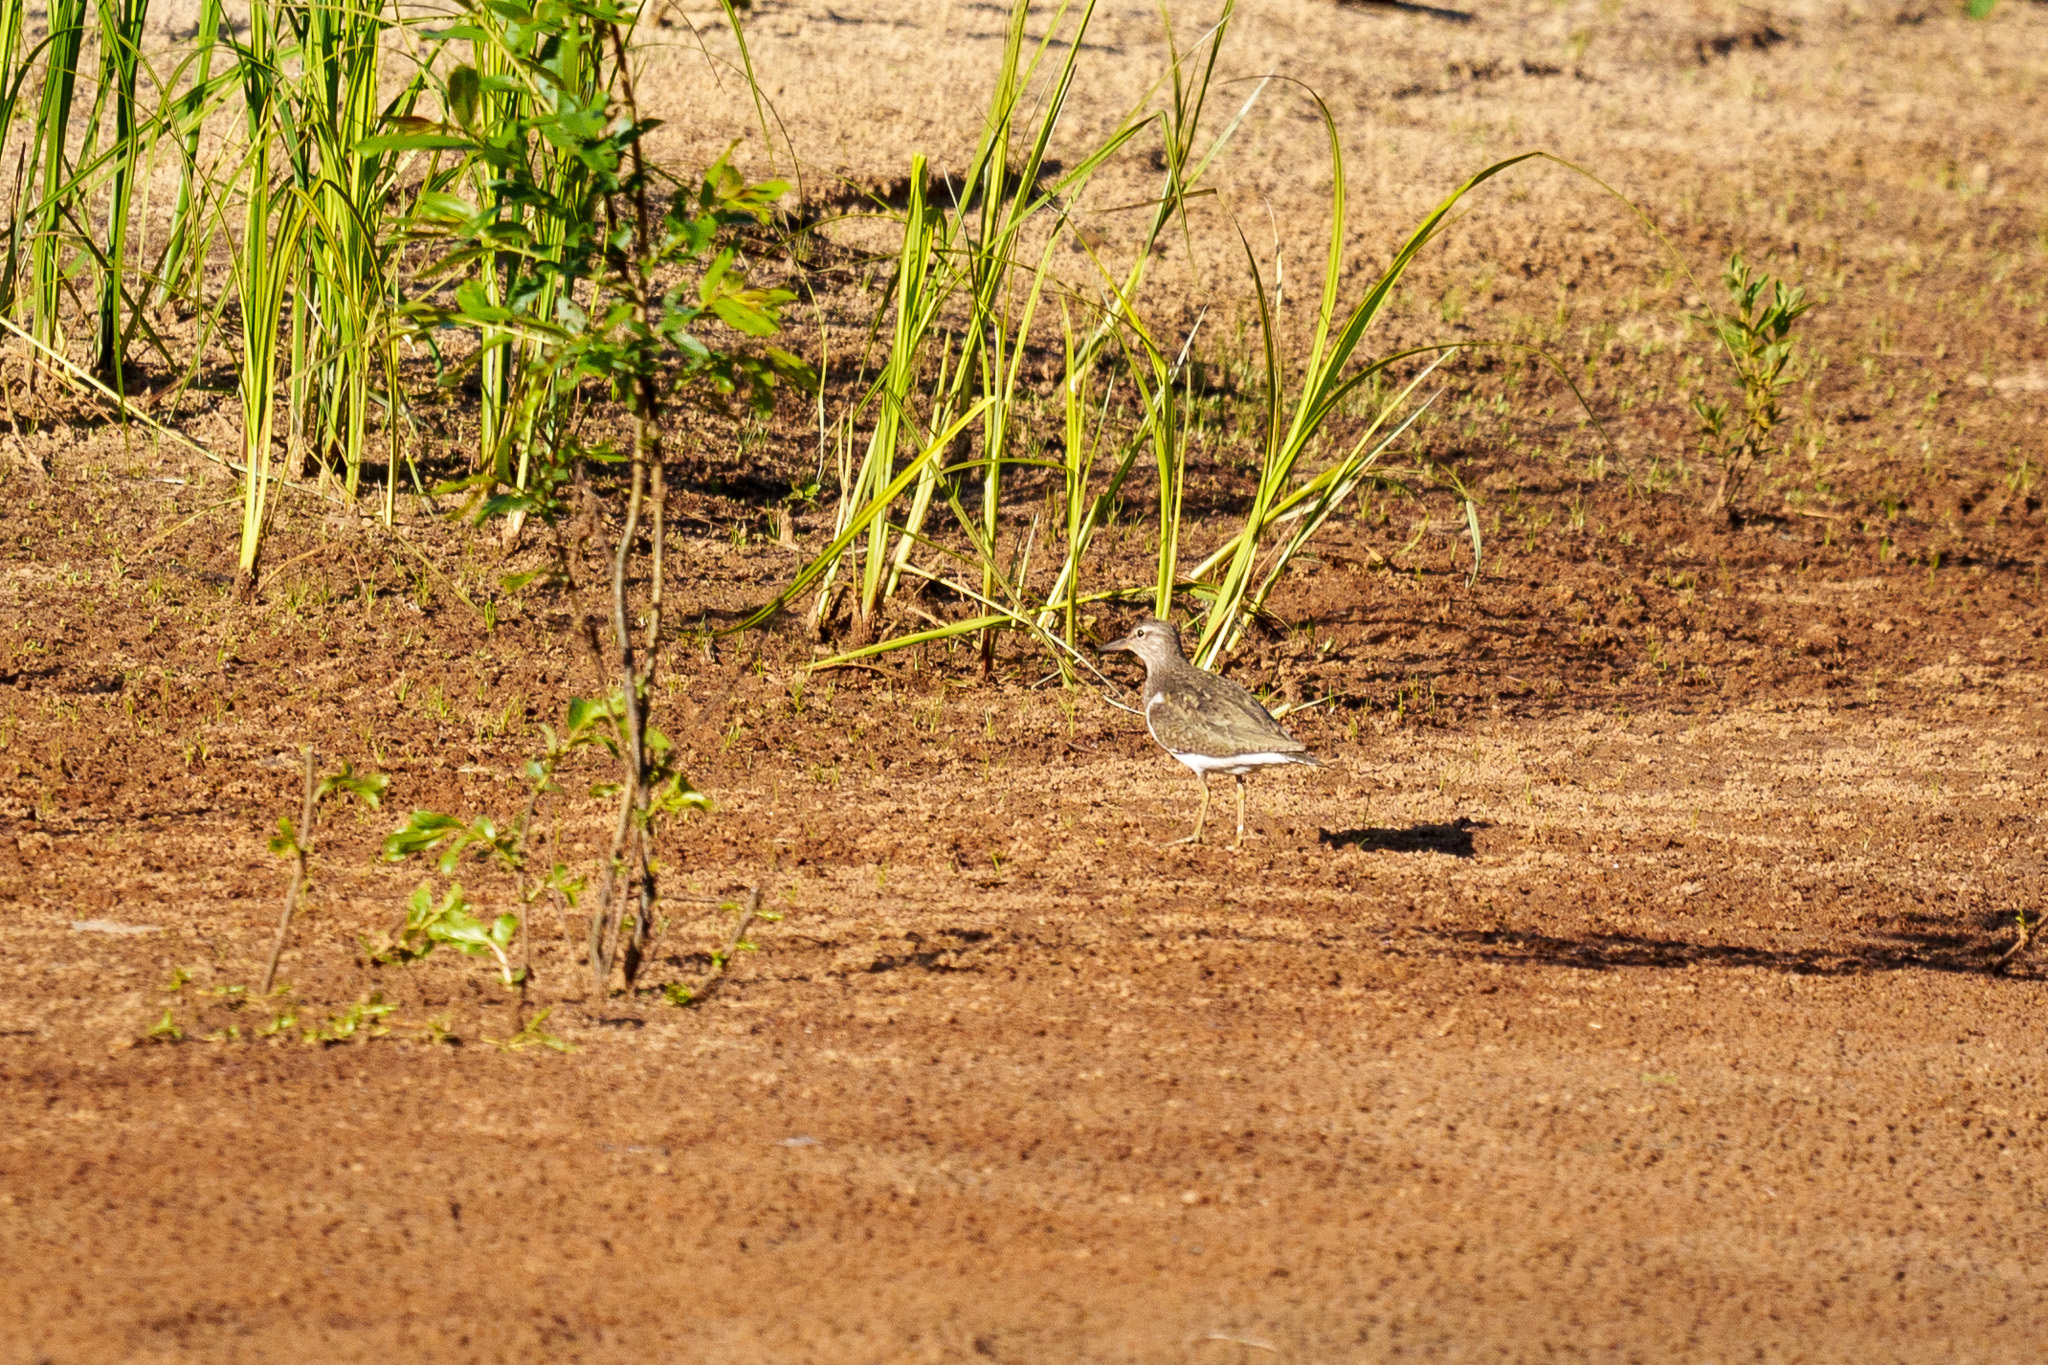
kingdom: Animalia
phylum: Chordata
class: Aves
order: Charadriiformes
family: Scolopacidae
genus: Actitis
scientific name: Actitis hypoleucos
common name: Common sandpiper
